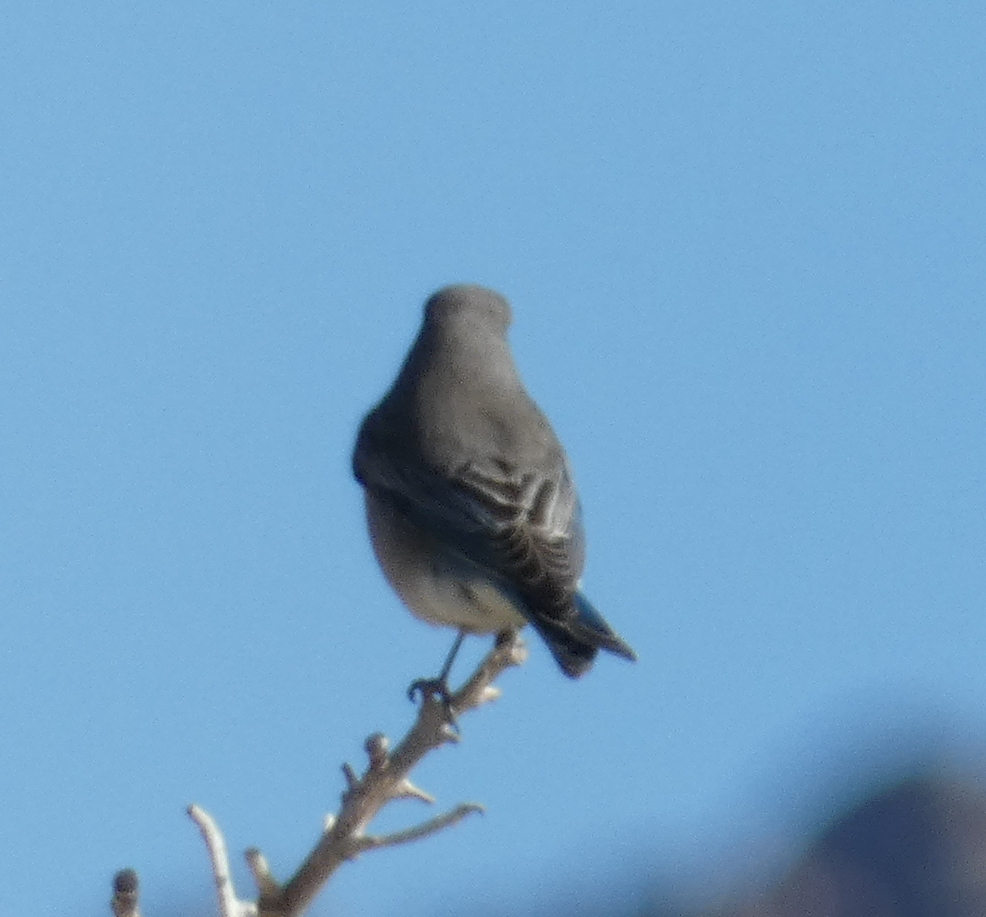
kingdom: Animalia
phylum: Chordata
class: Aves
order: Passeriformes
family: Turdidae
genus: Sialia
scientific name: Sialia currucoides
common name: Mountain bluebird
